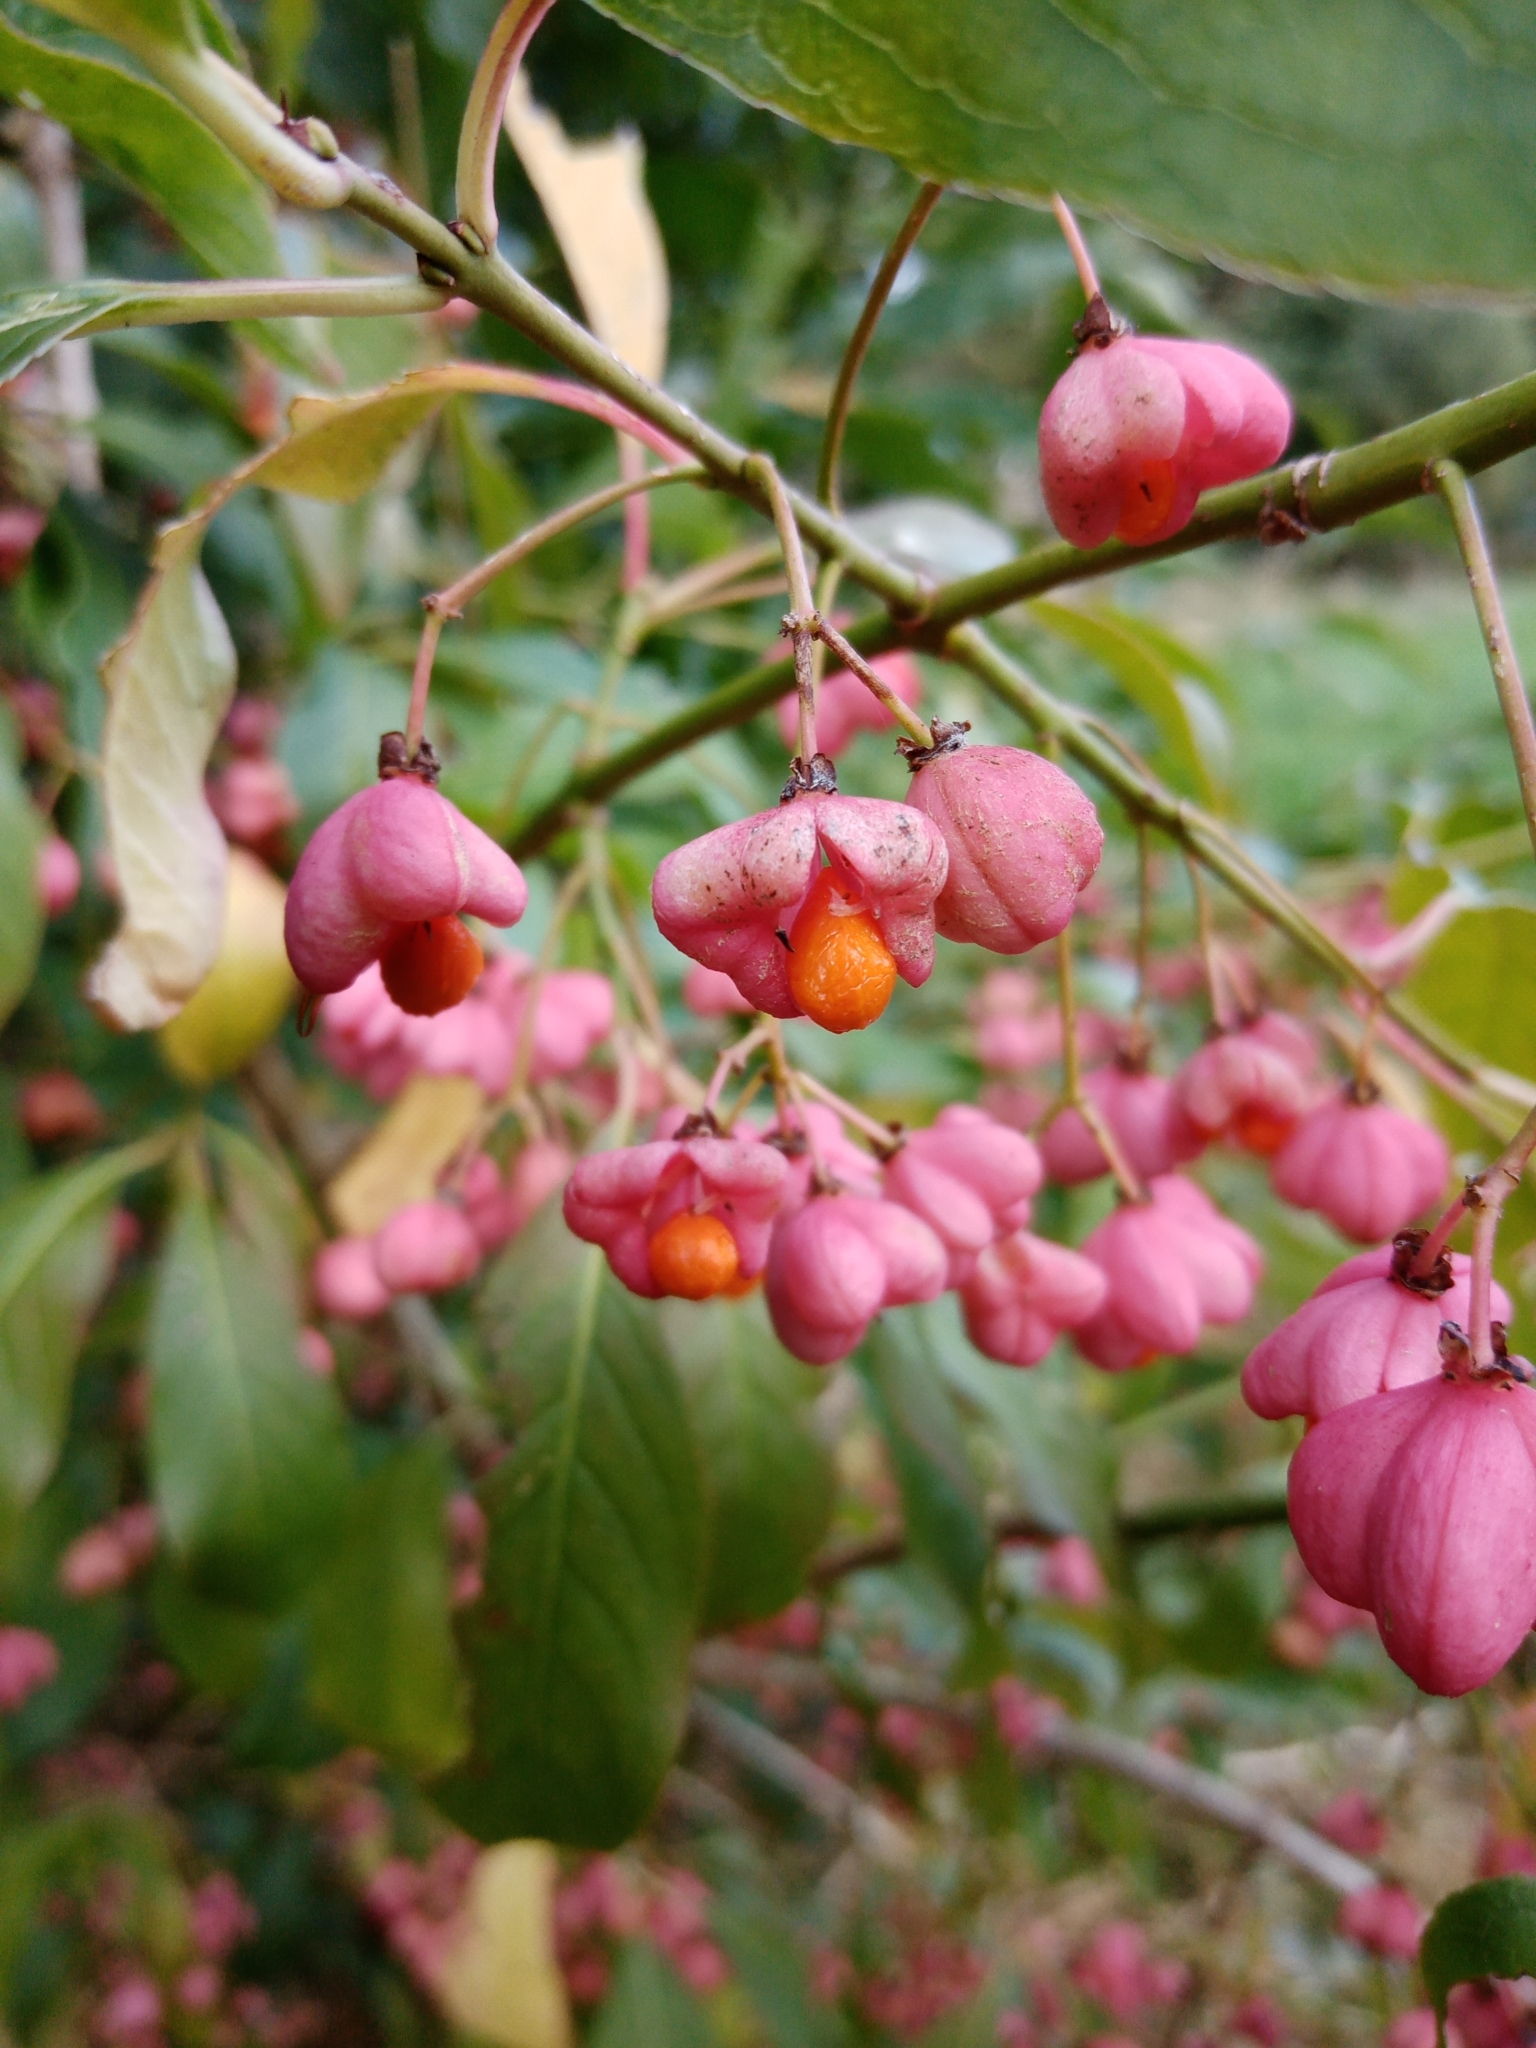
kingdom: Plantae
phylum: Tracheophyta
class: Magnoliopsida
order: Celastrales
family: Celastraceae
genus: Euonymus
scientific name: Euonymus europaeus
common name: Spindle
